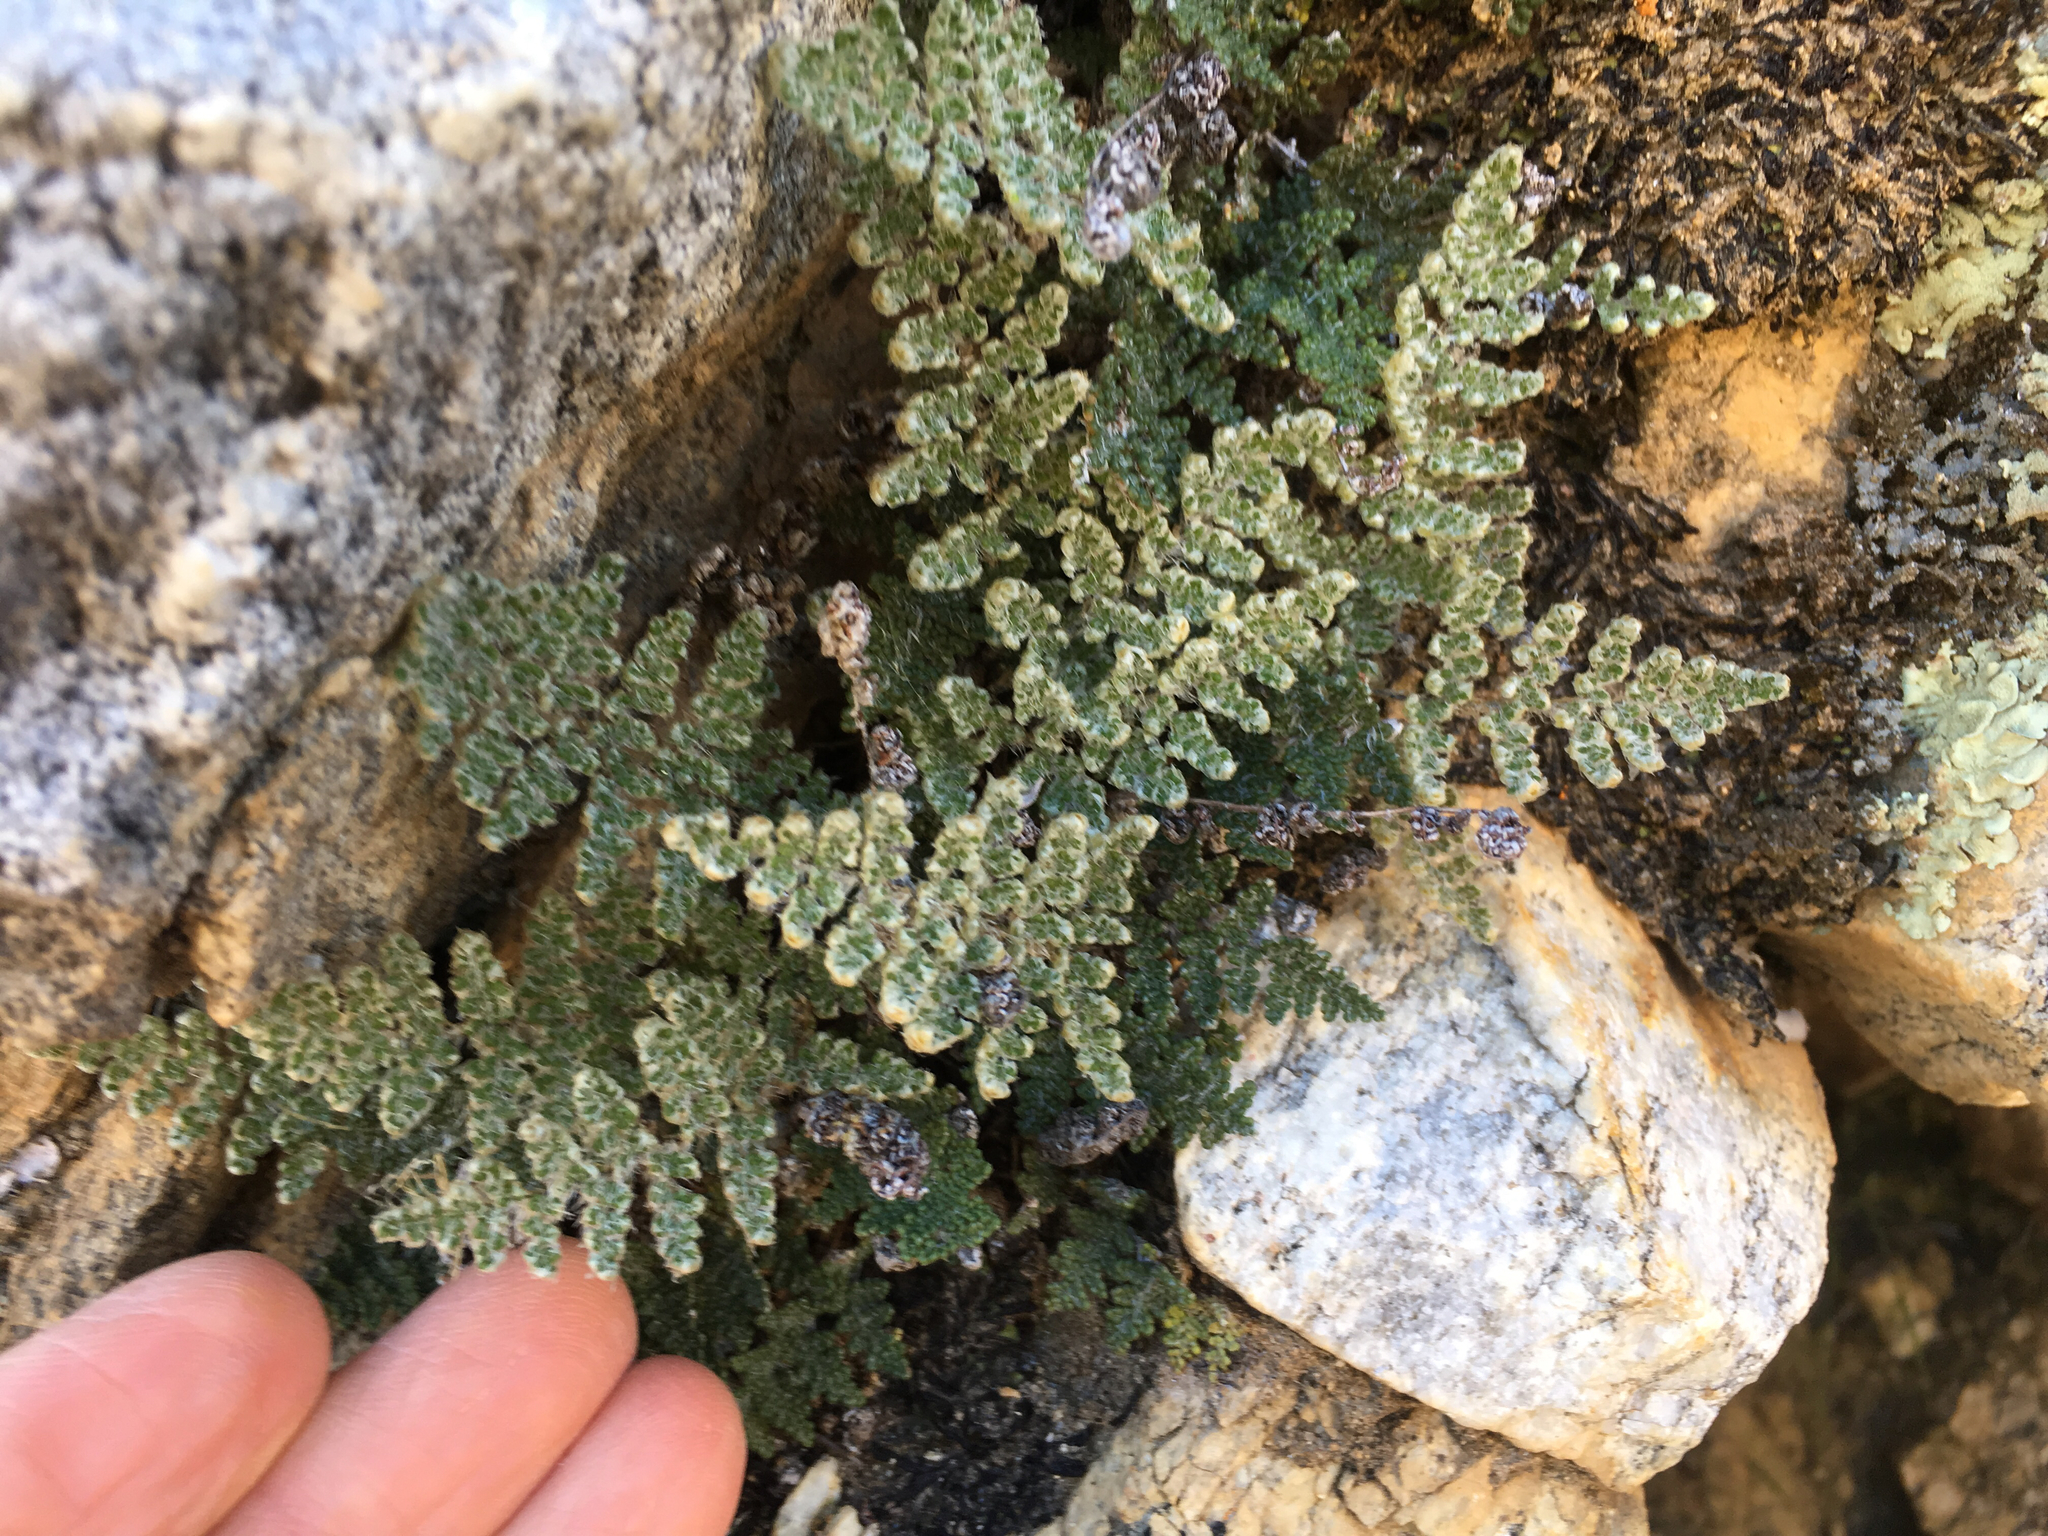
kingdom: Plantae
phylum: Tracheophyta
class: Polypodiopsida
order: Polypodiales
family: Pteridaceae
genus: Myriopteris
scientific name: Myriopteris covillei
